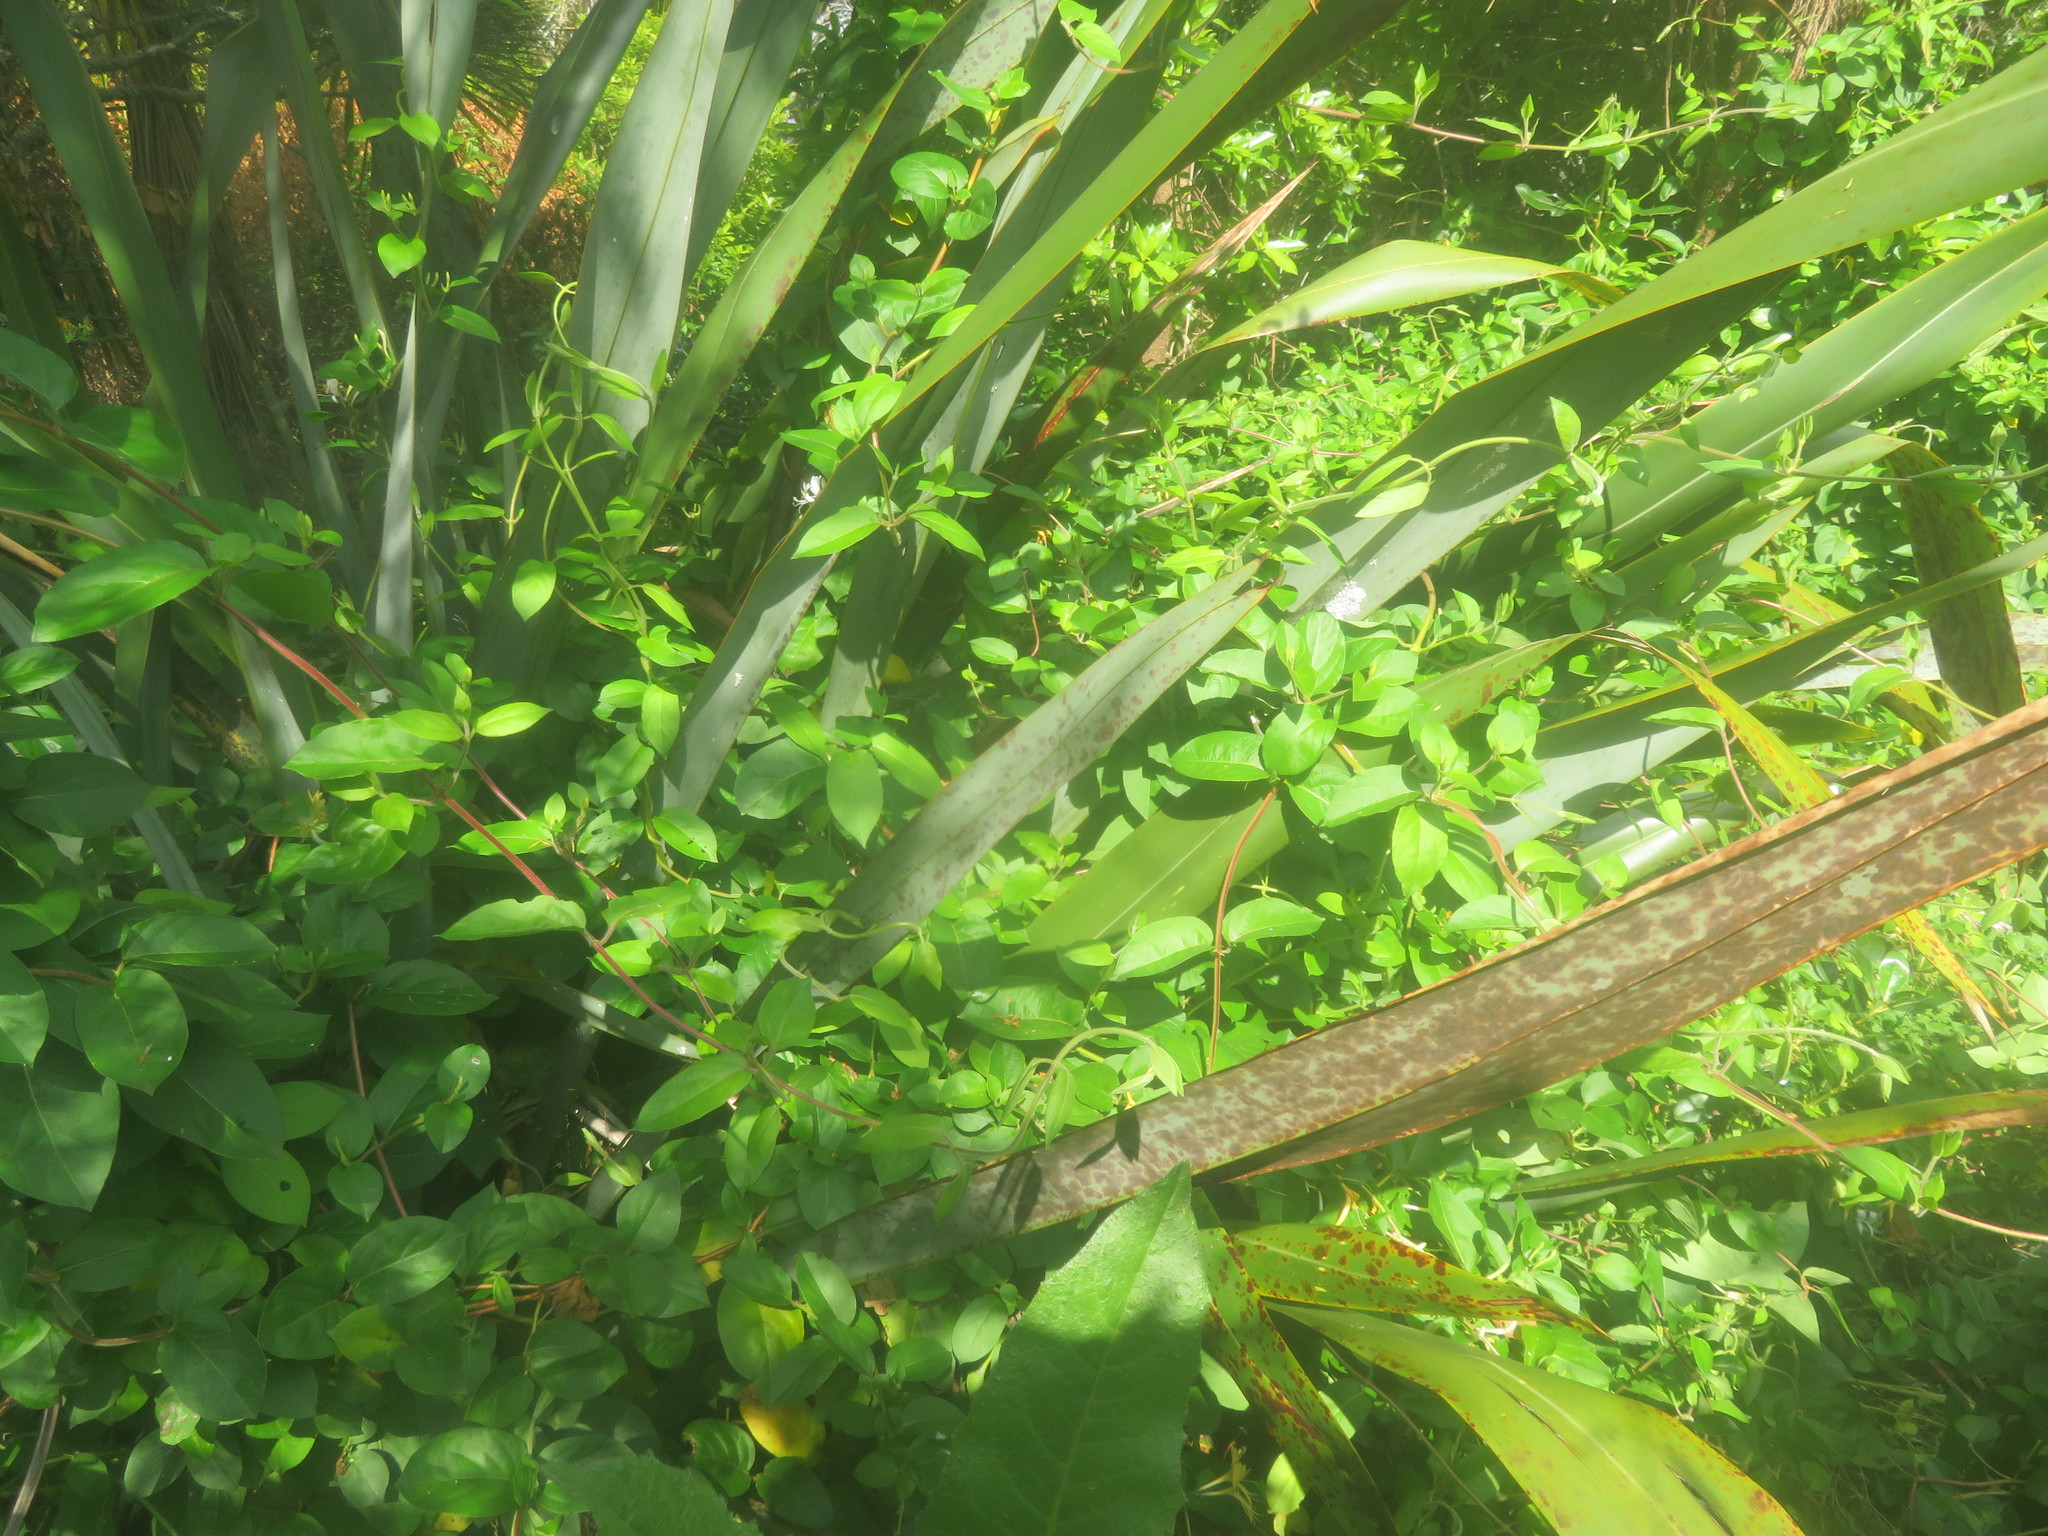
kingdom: Plantae
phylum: Tracheophyta
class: Magnoliopsida
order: Dipsacales
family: Caprifoliaceae
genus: Lonicera
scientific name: Lonicera japonica
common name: Japanese honeysuckle
